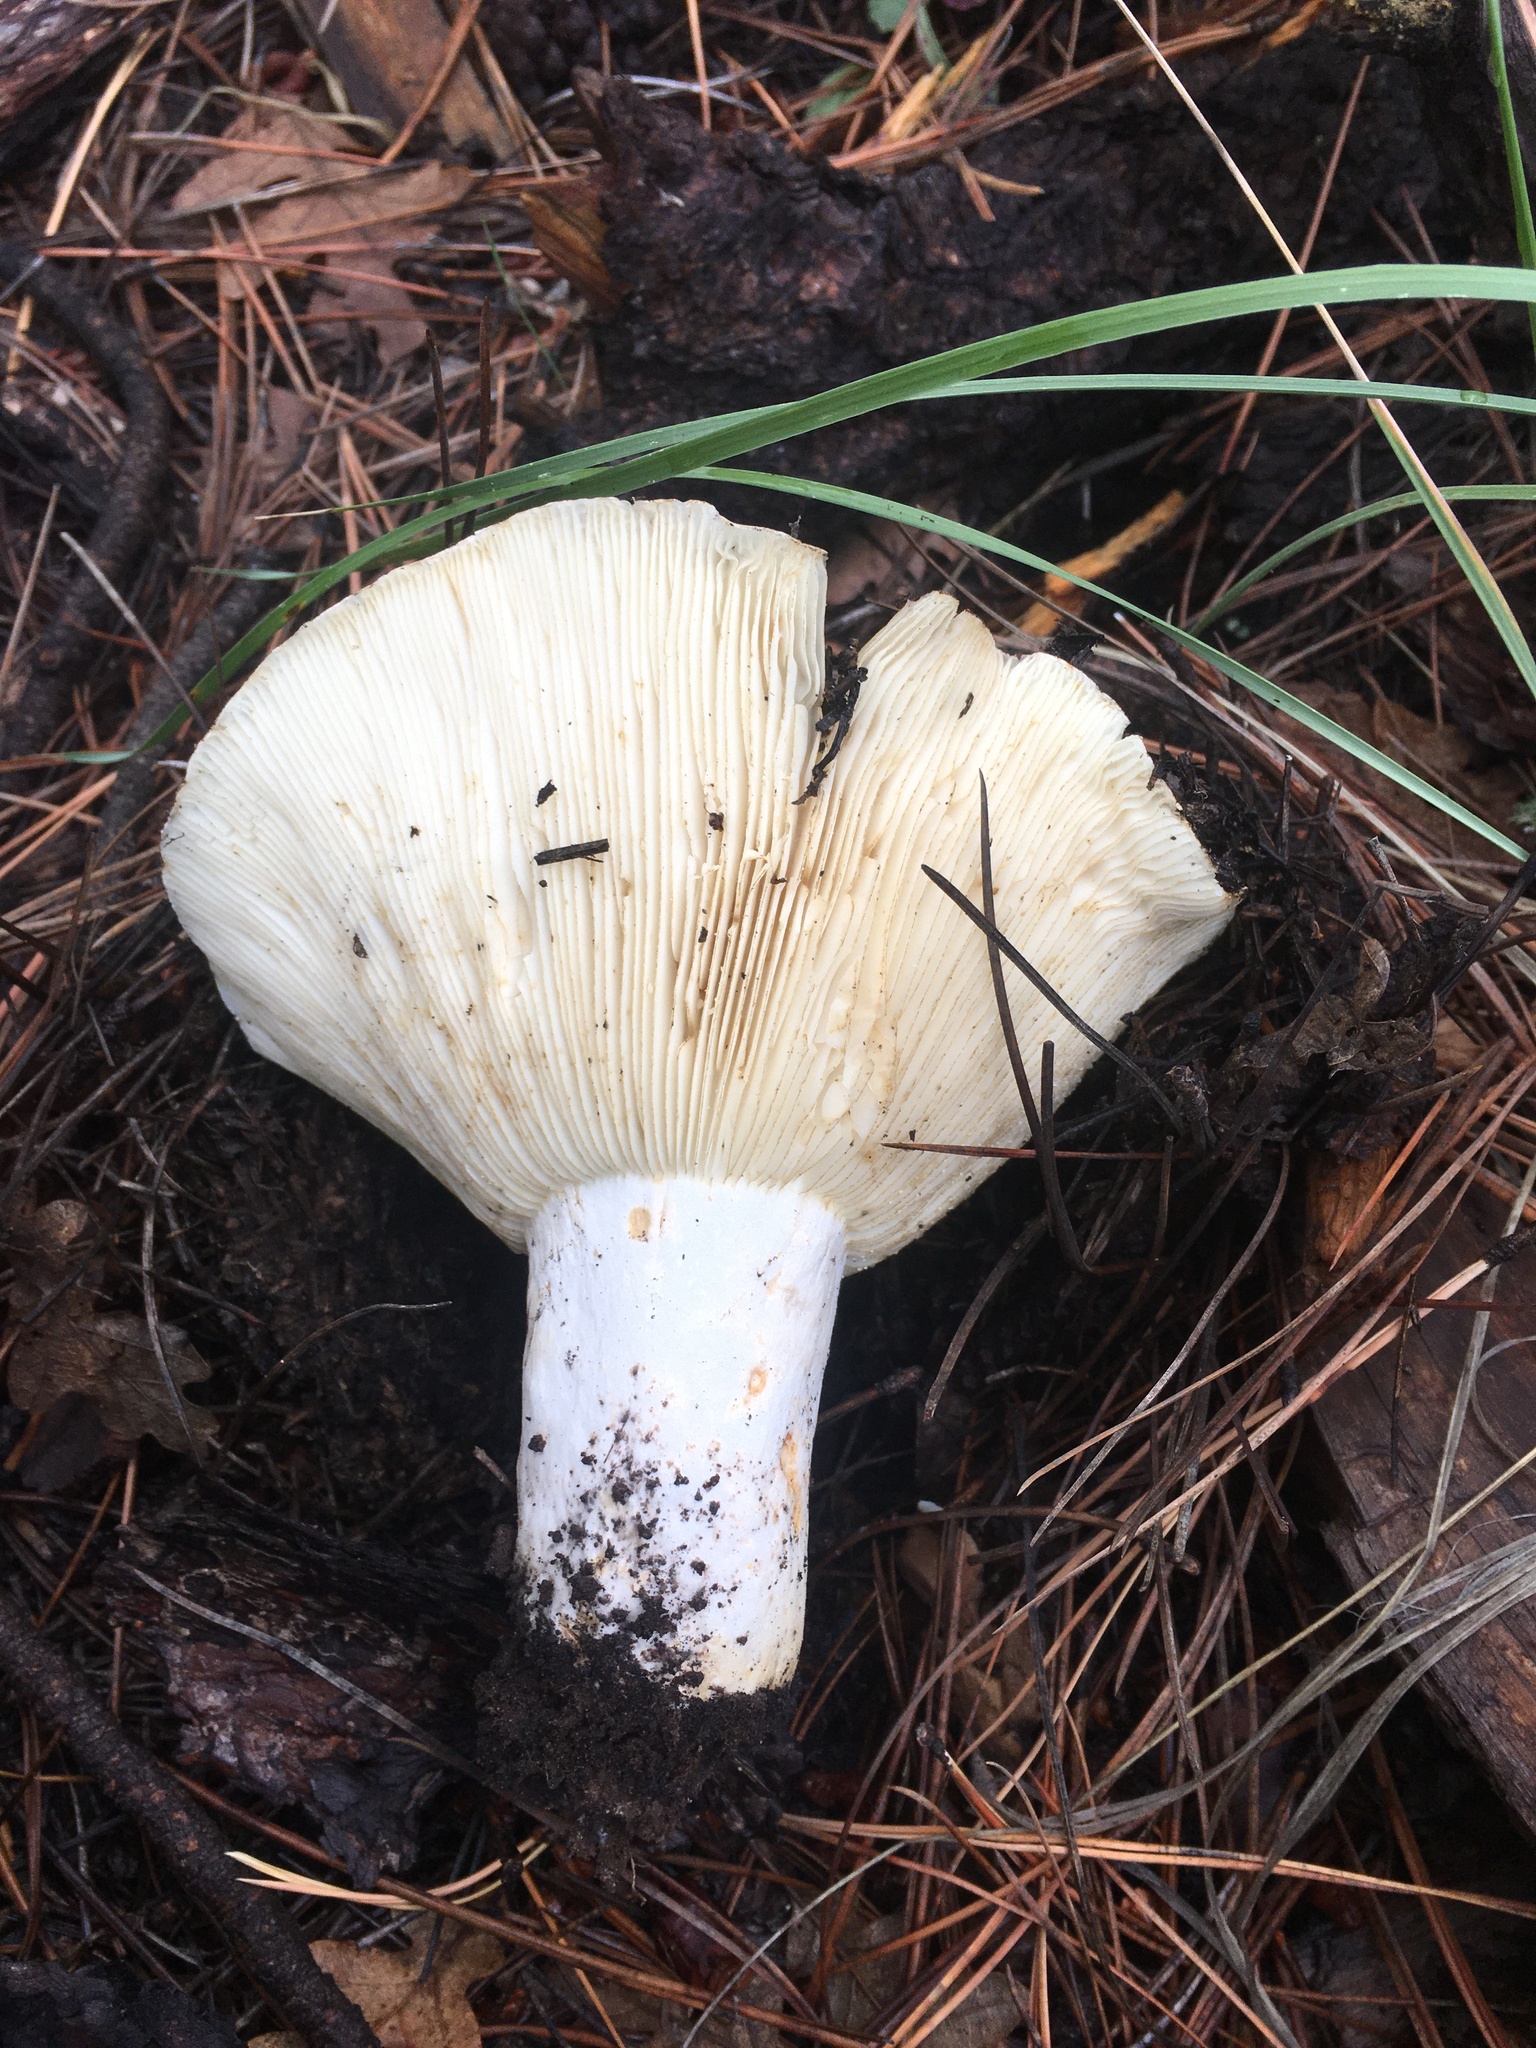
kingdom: Fungi
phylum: Basidiomycota
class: Agaricomycetes
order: Russulales
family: Russulaceae
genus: Russula
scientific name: Russula brevipes
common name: Short-stemmed russula
